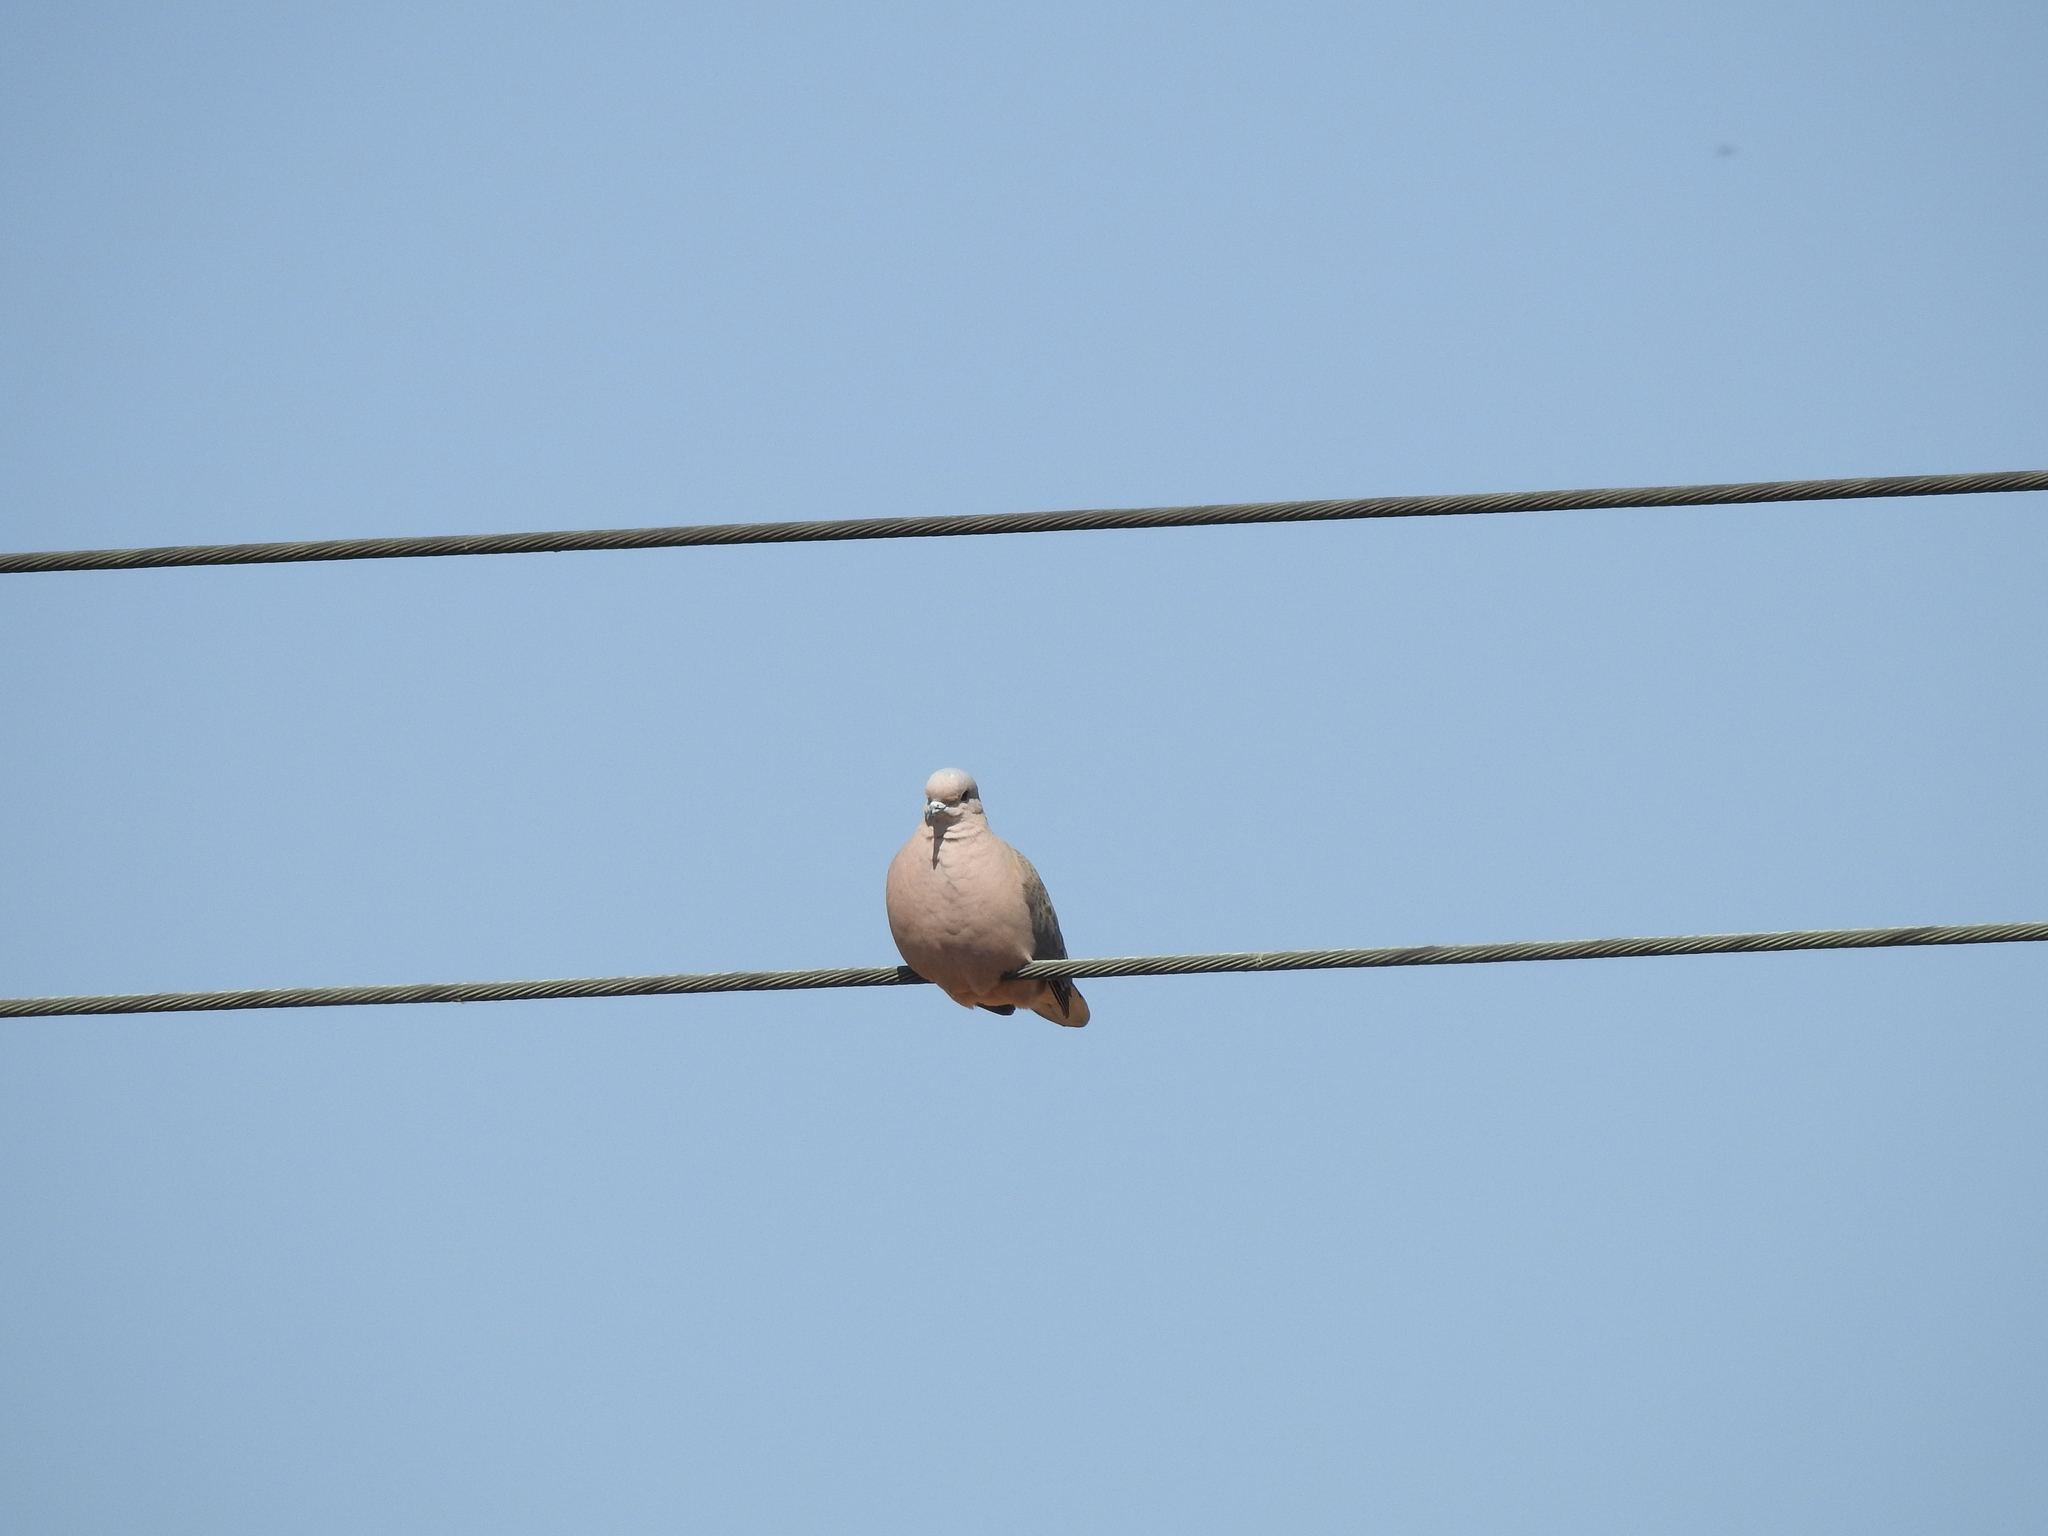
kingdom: Animalia
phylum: Chordata
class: Aves
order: Columbiformes
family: Columbidae
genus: Columbina
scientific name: Columbina picui
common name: Picui ground dove
